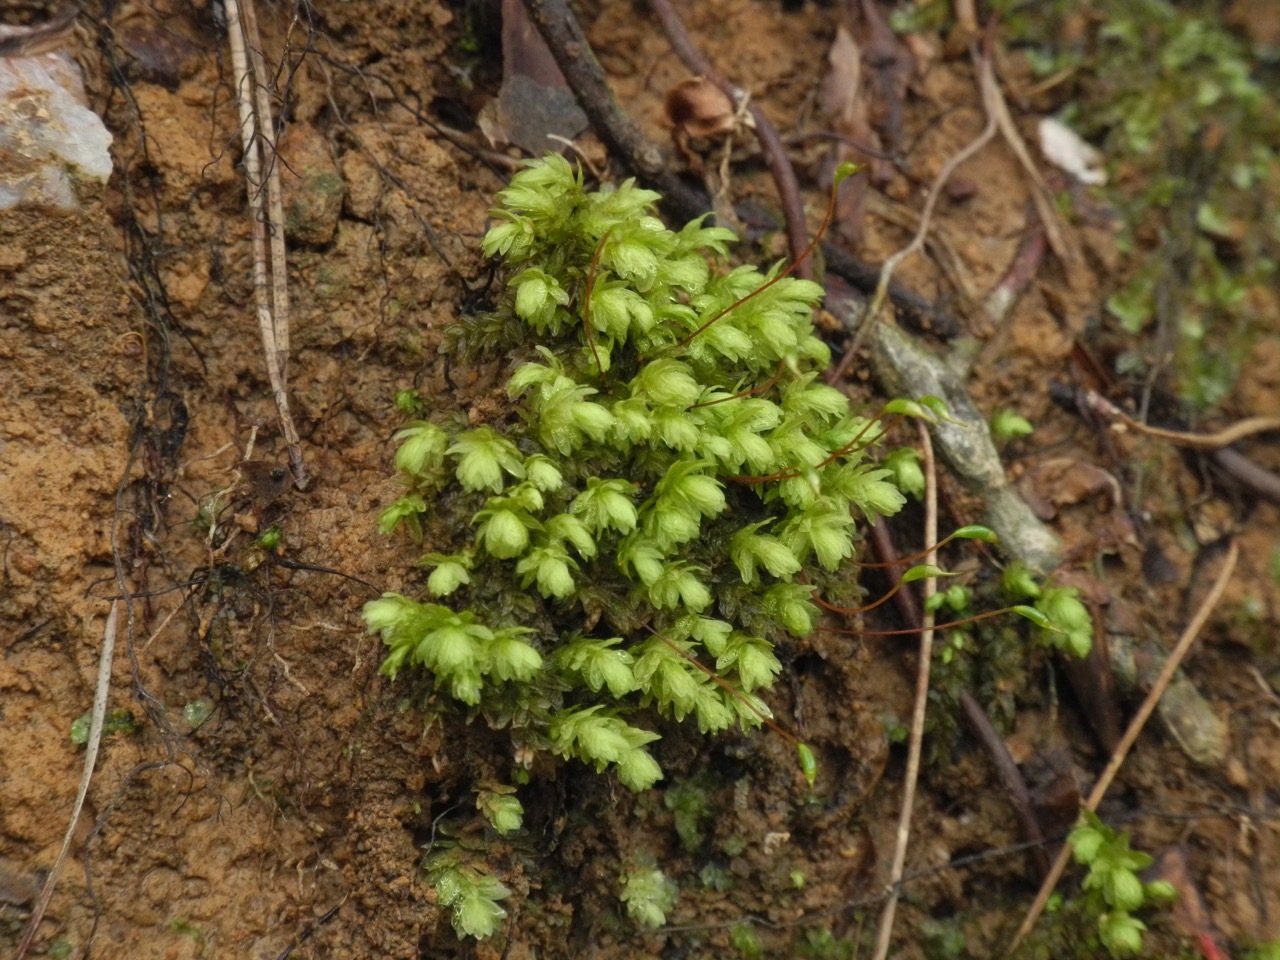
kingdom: Plantae
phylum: Bryophyta
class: Bryopsida
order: Aulacomniales
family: Aulacomniaceae
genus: Aulacomnium
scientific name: Aulacomnium heterostichum
